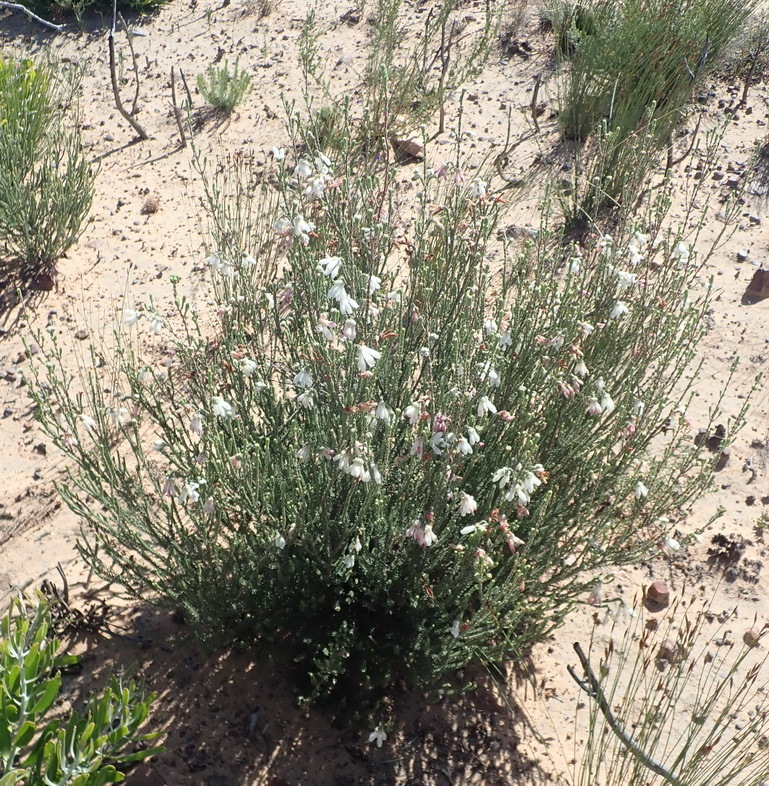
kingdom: Plantae
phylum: Tracheophyta
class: Magnoliopsida
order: Ericales
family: Ericaceae
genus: Erica
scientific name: Erica pectinifolia
